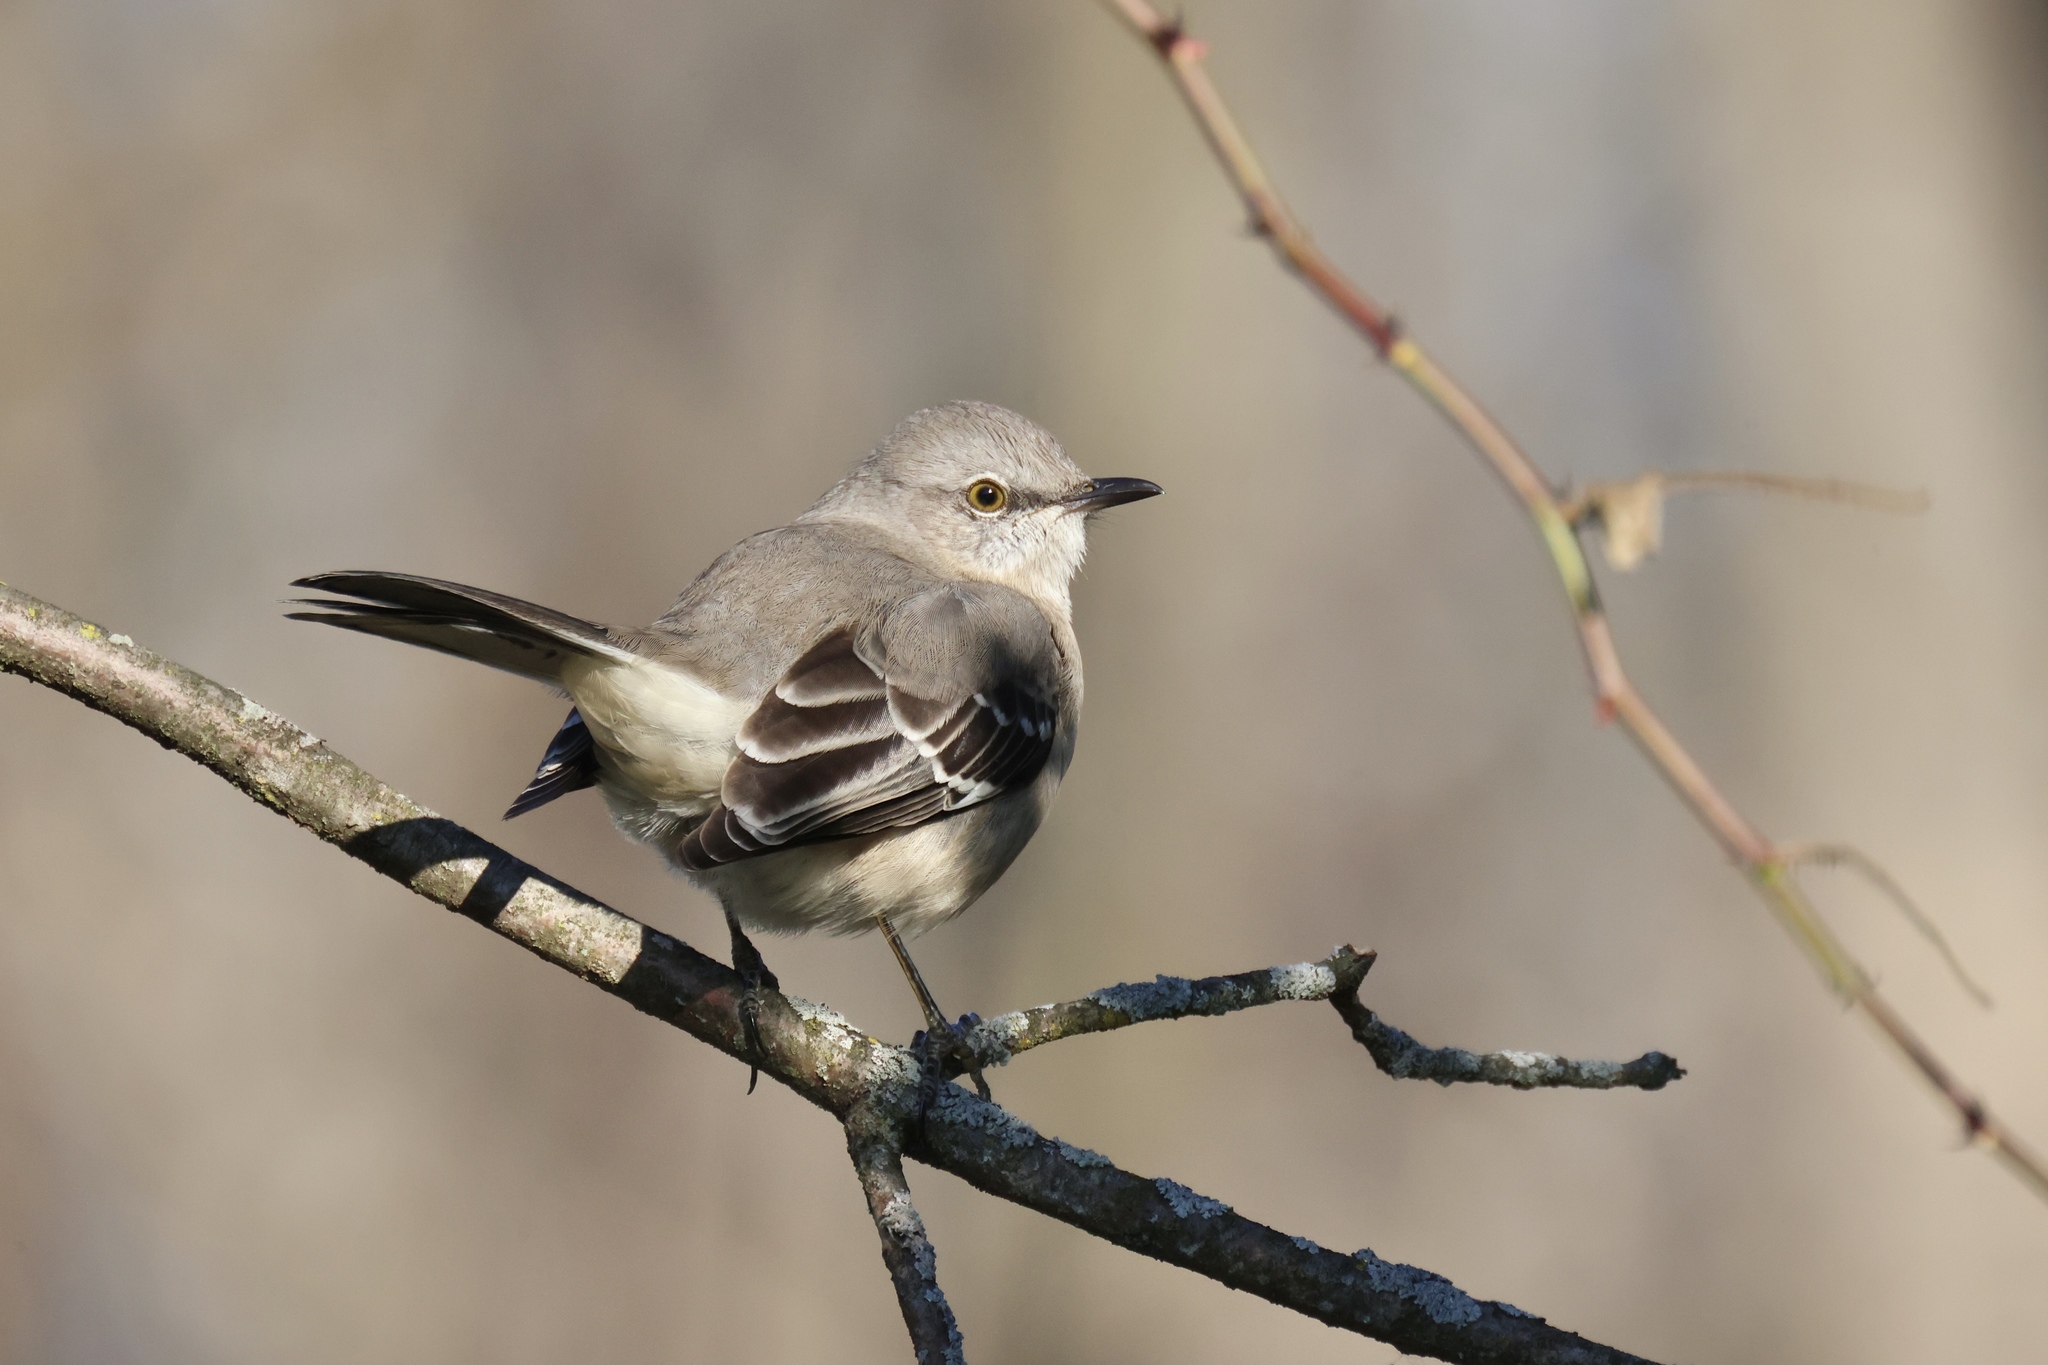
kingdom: Animalia
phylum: Chordata
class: Aves
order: Passeriformes
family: Mimidae
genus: Mimus
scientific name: Mimus polyglottos
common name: Northern mockingbird
